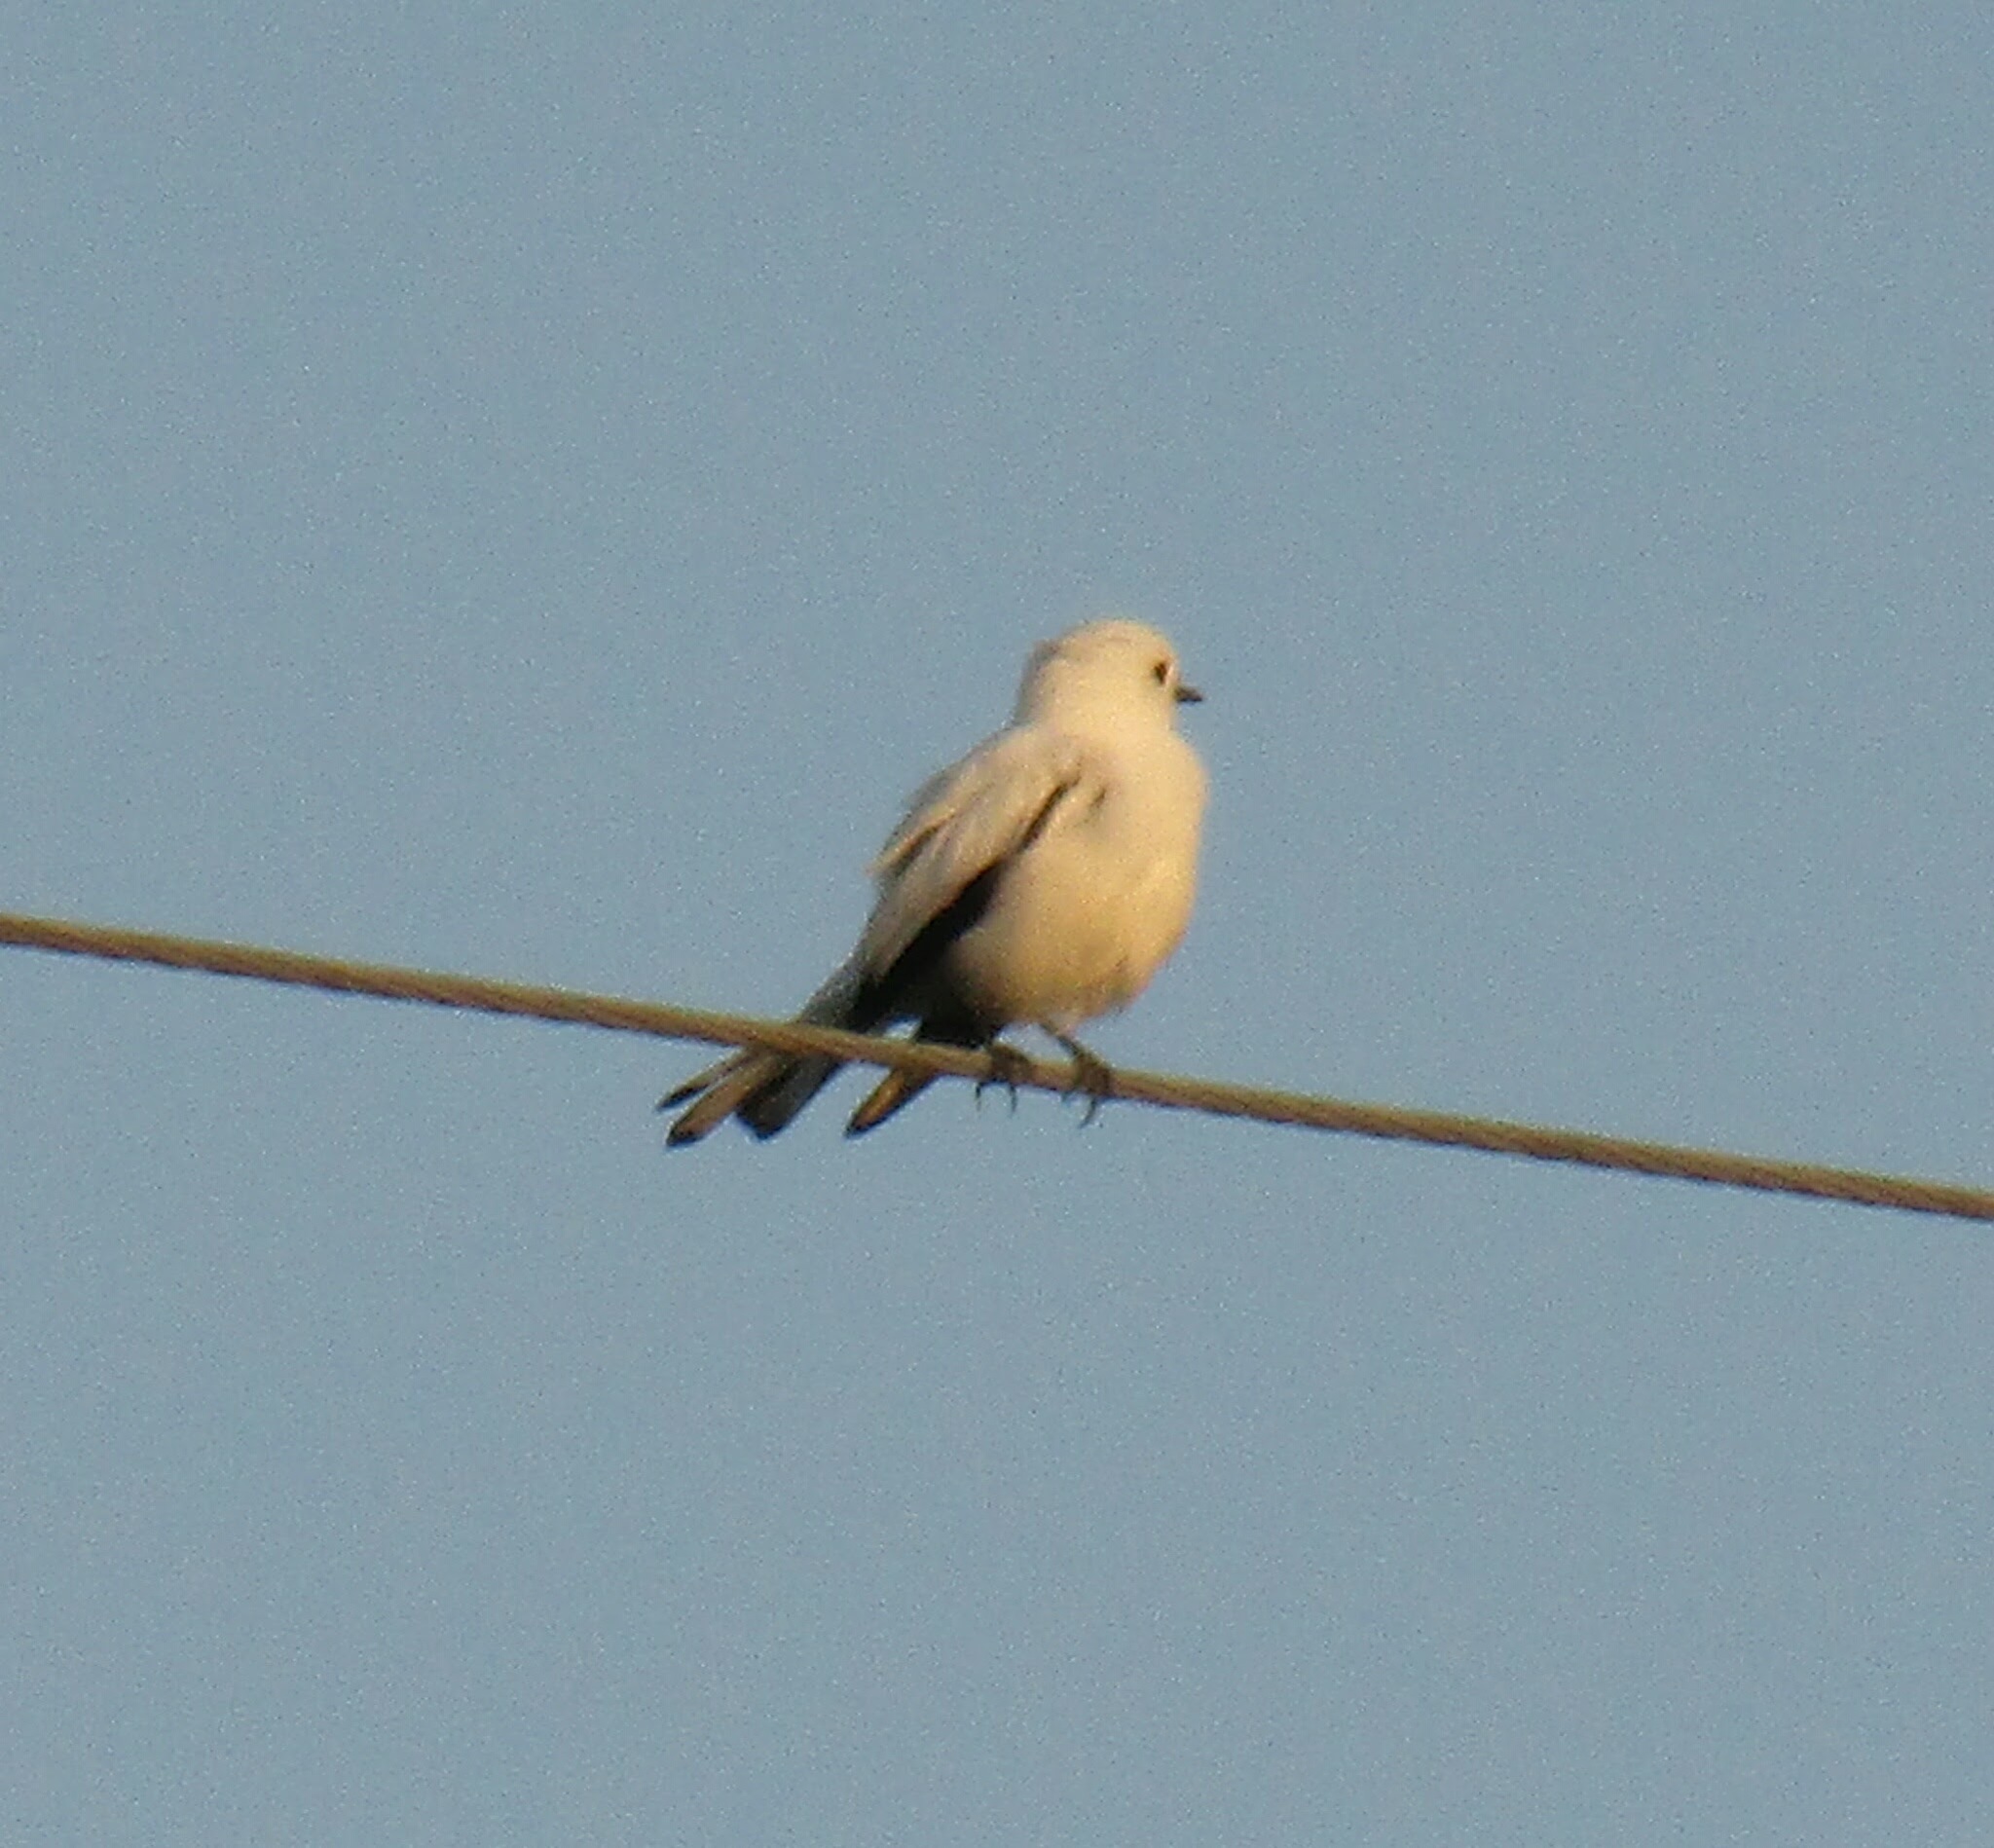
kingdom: Animalia
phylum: Chordata
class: Aves
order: Passeriformes
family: Tyrannidae
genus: Xolmis
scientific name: Xolmis irupero
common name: White monjita
